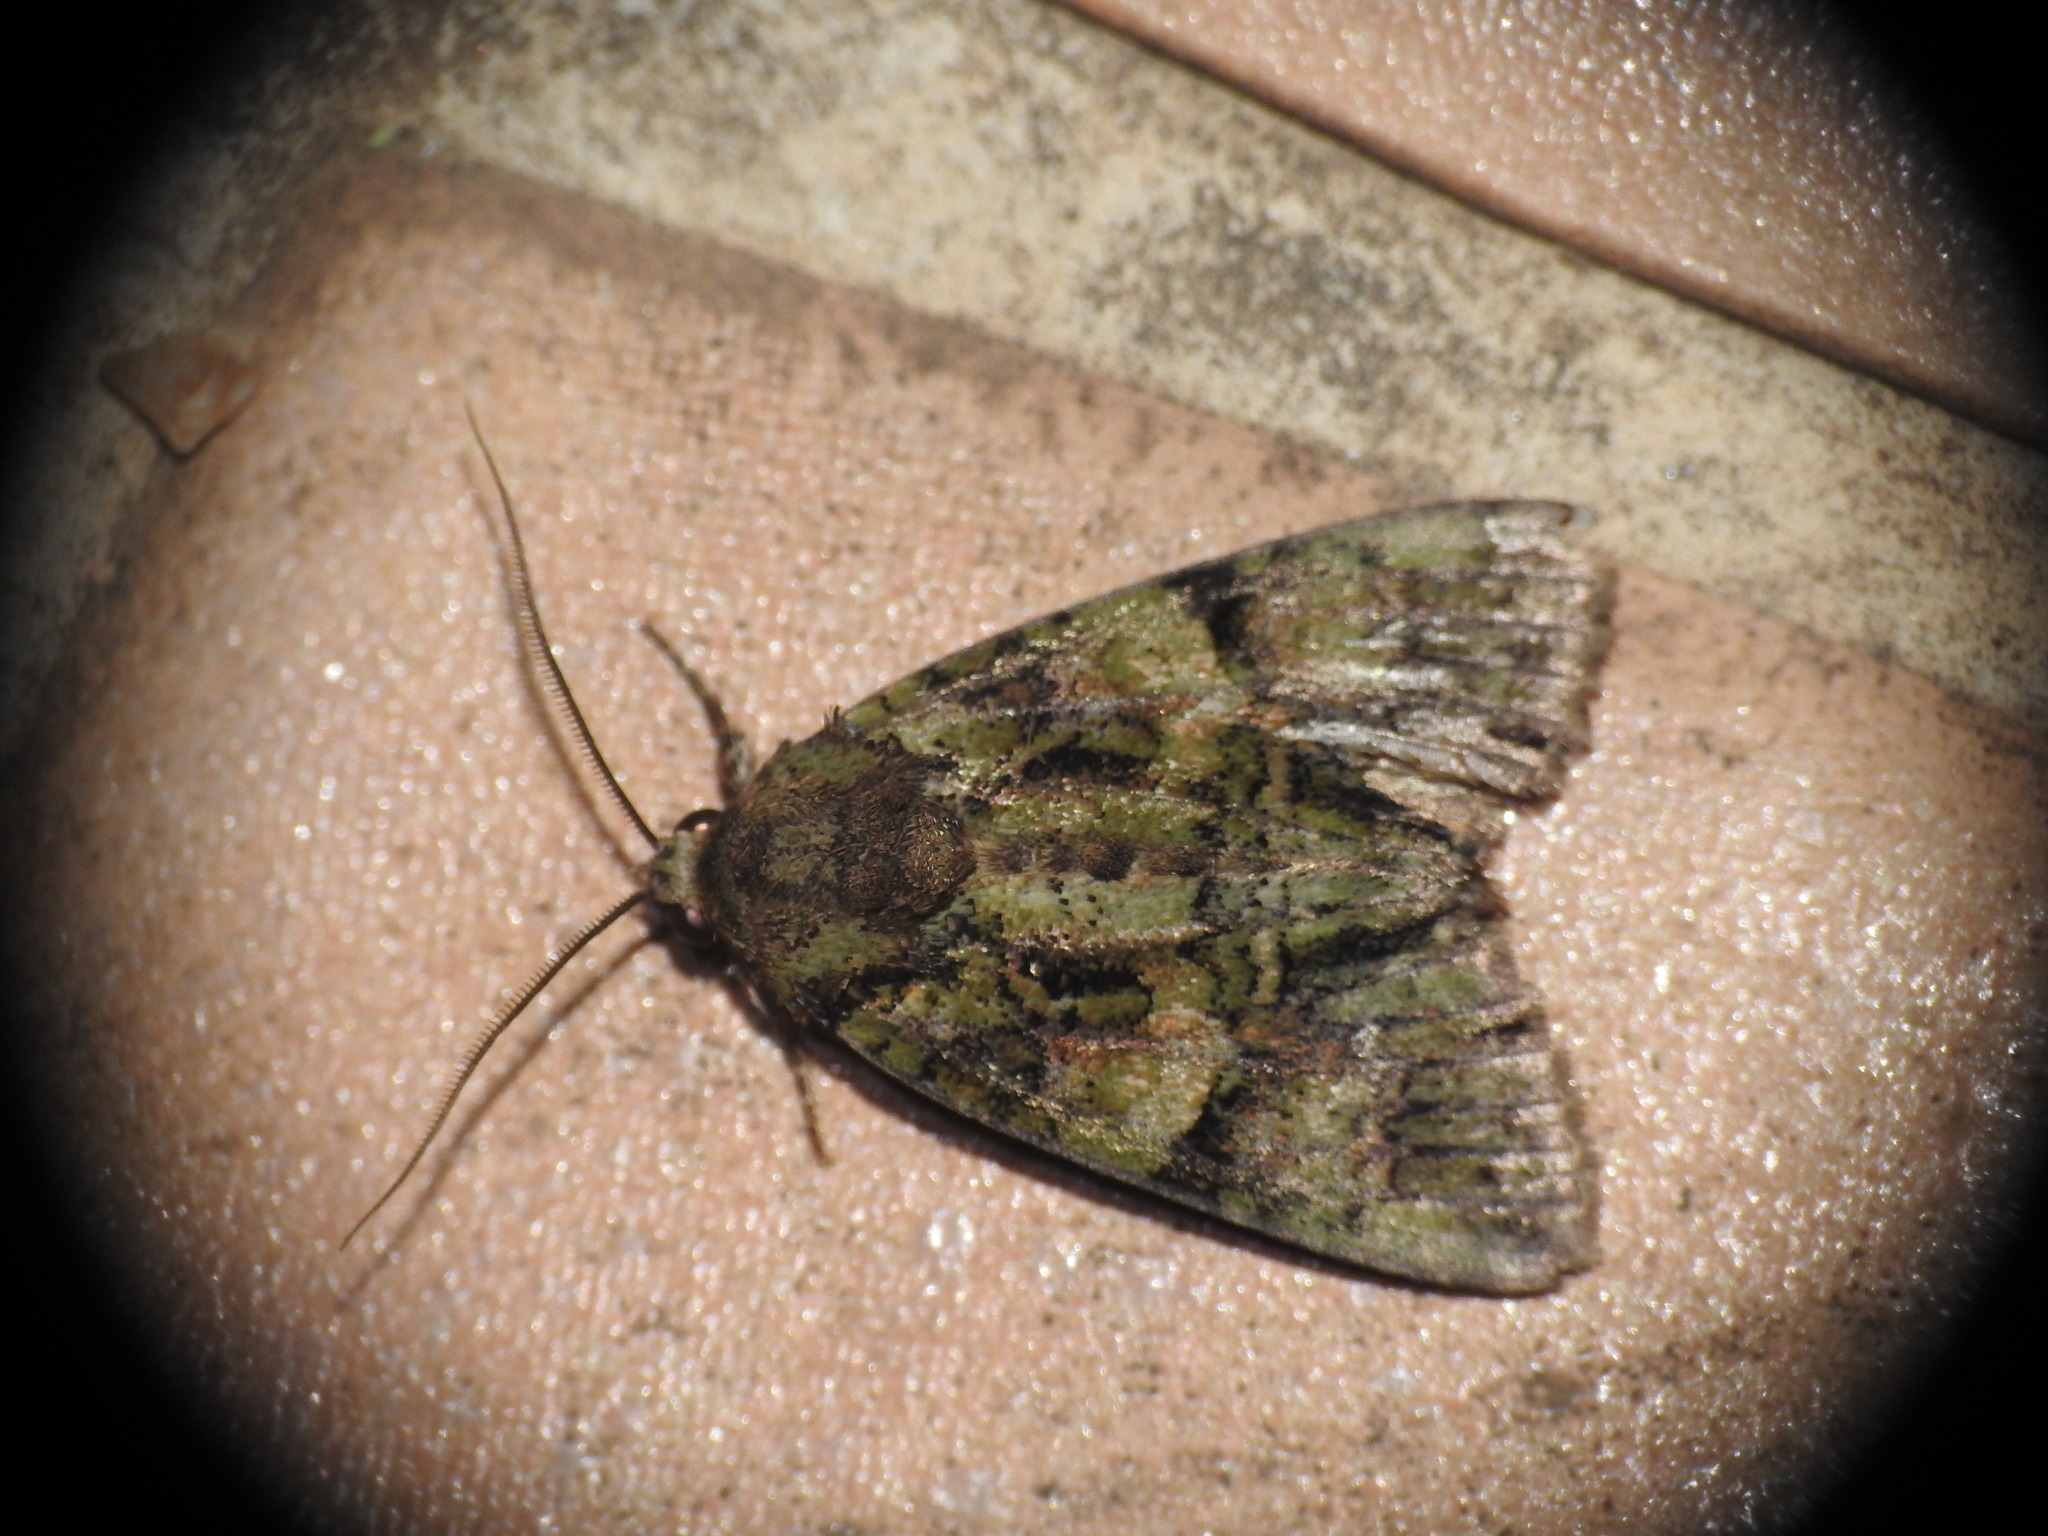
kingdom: Animalia
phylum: Arthropoda
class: Insecta
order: Lepidoptera
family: Noctuidae
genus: Polyphaenis
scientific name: Polyphaenis sericata
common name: Guernsey underwing
